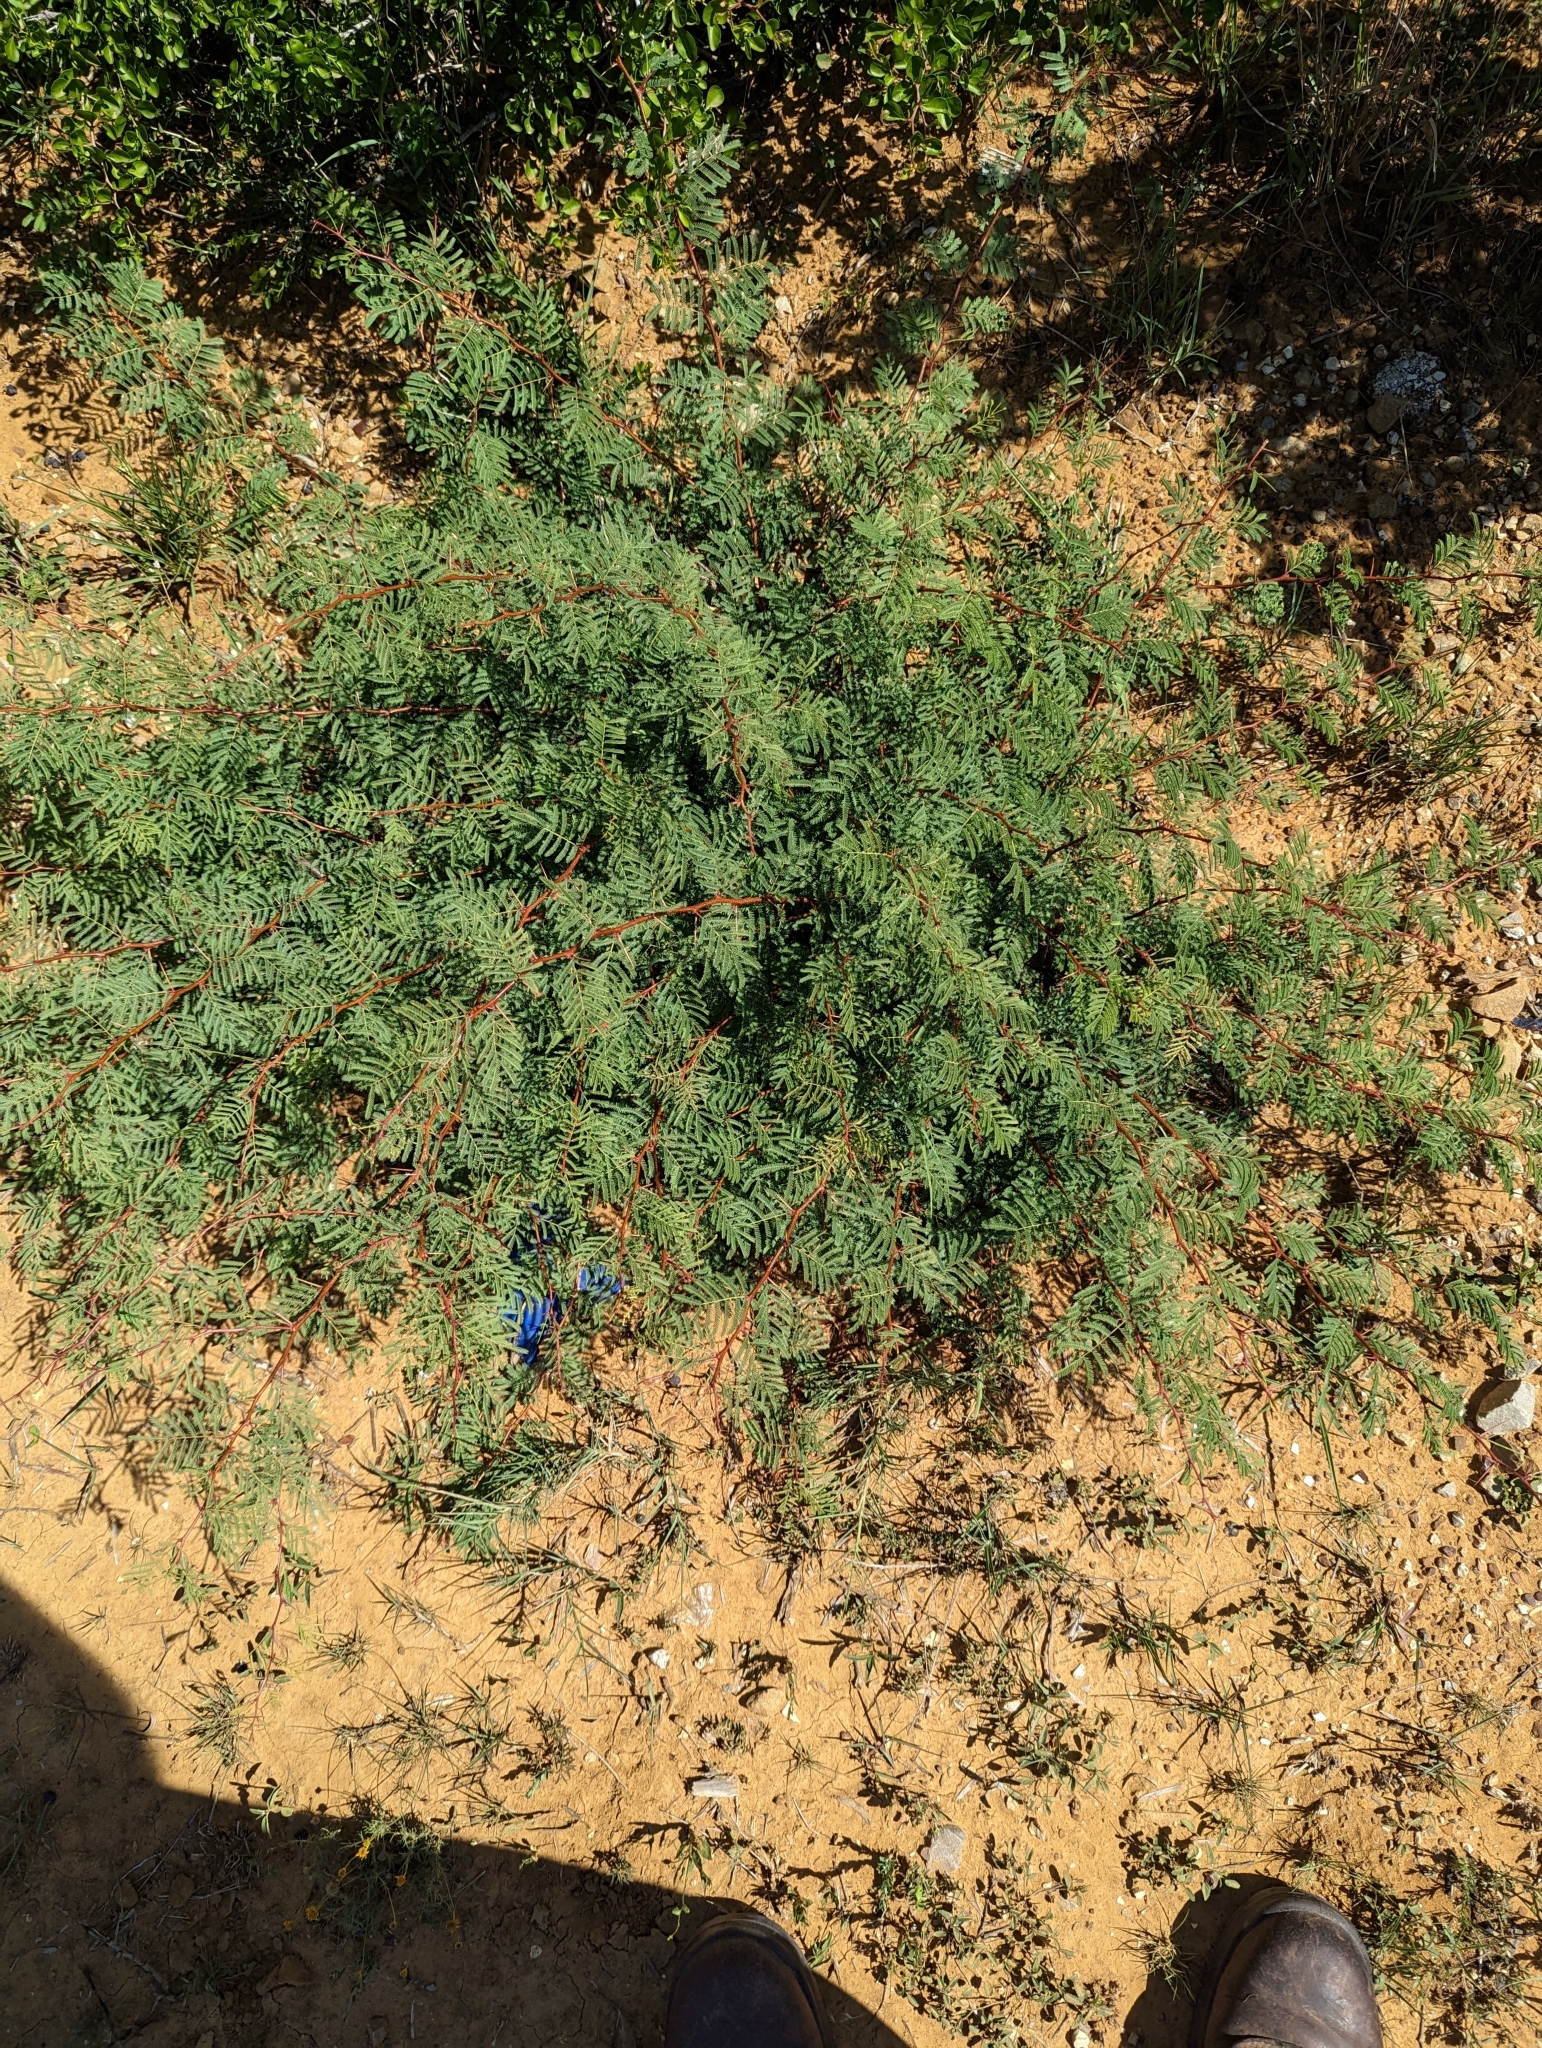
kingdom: Plantae
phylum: Tracheophyta
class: Magnoliopsida
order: Fabales
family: Fabaceae
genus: Vachellia
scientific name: Vachellia schaffneri
